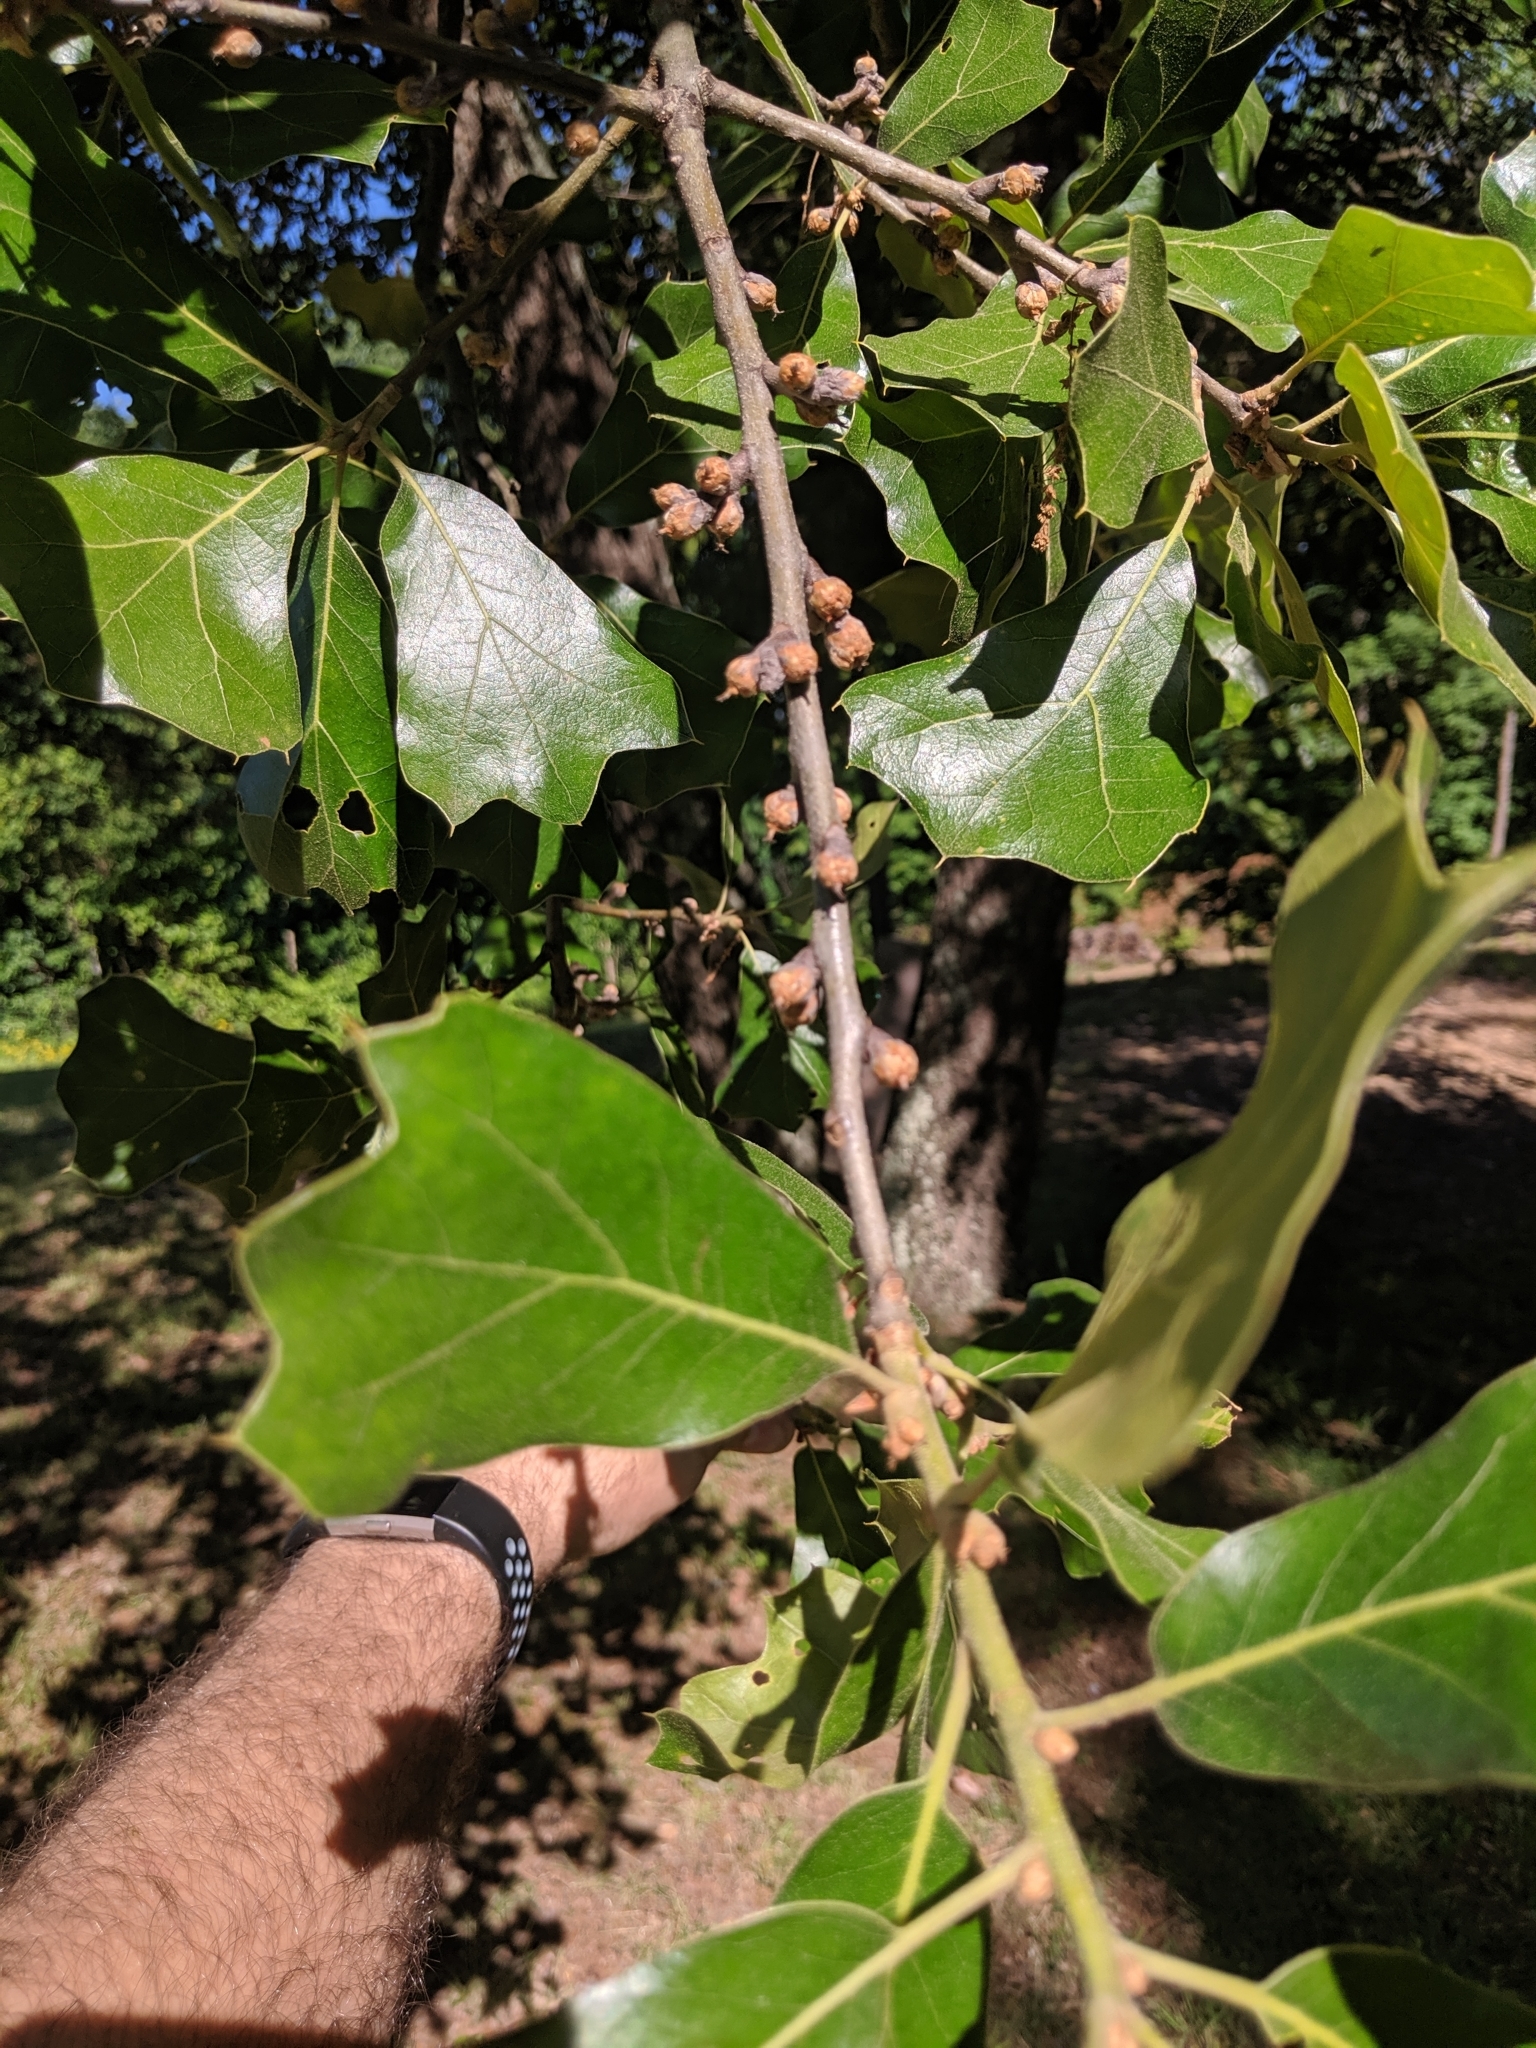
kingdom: Plantae
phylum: Tracheophyta
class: Magnoliopsida
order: Fagales
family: Fagaceae
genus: Quercus
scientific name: Quercus marilandica
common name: Blackjack oak
